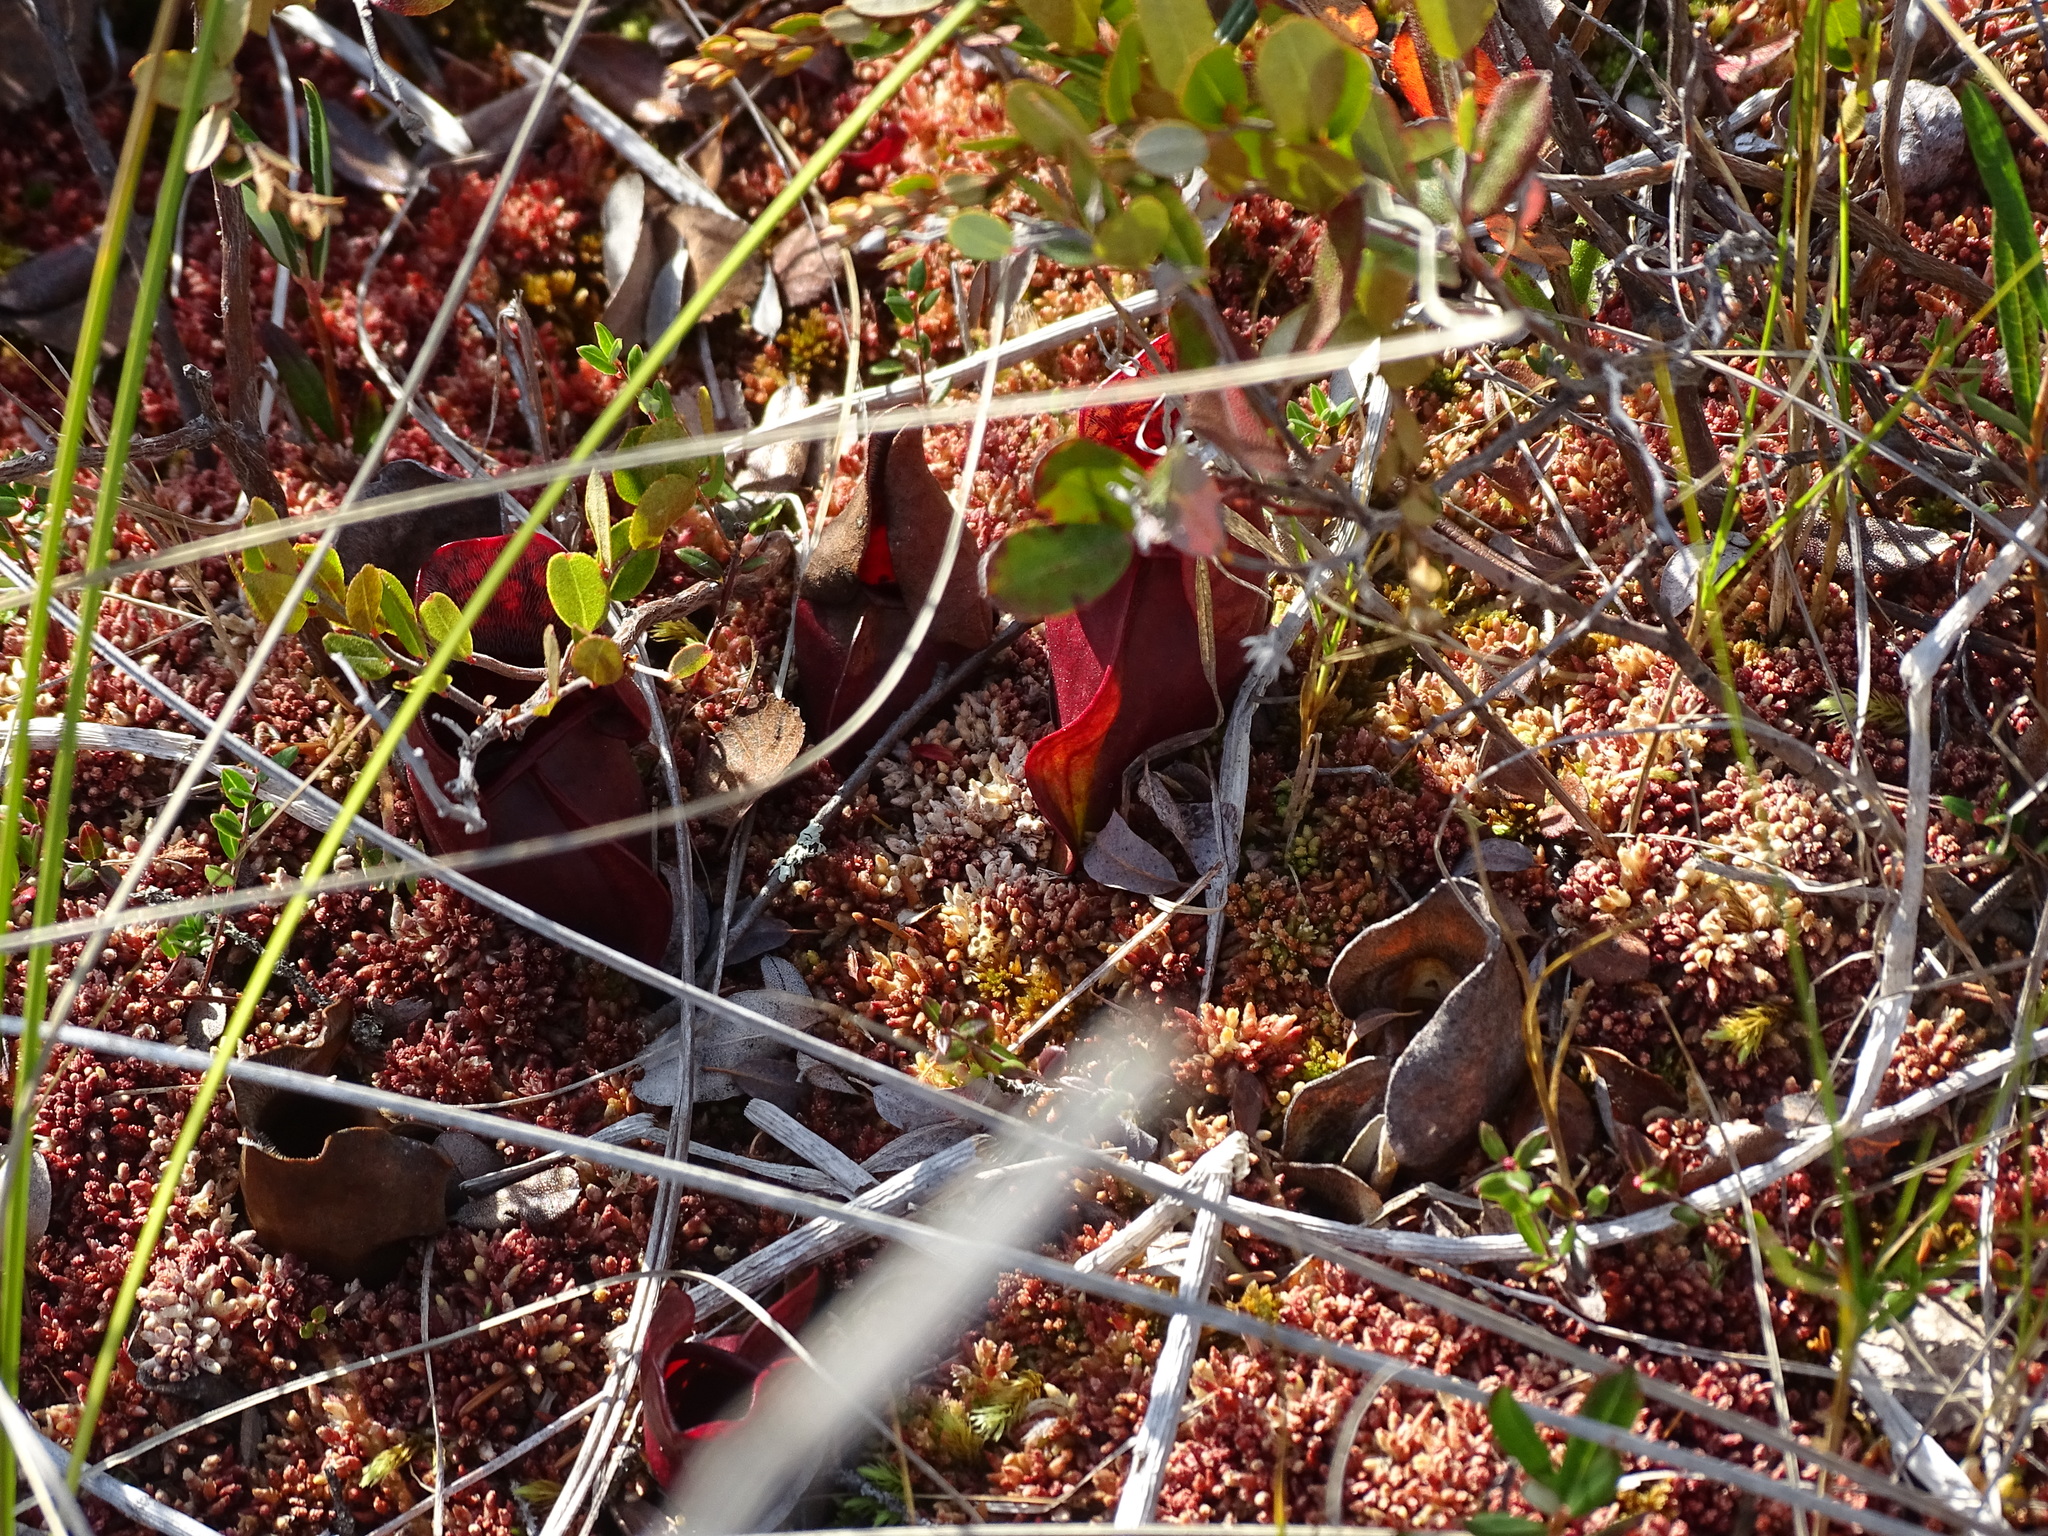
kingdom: Plantae
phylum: Tracheophyta
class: Magnoliopsida
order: Ericales
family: Sarraceniaceae
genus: Sarracenia
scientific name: Sarracenia purpurea
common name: Pitcherplant
